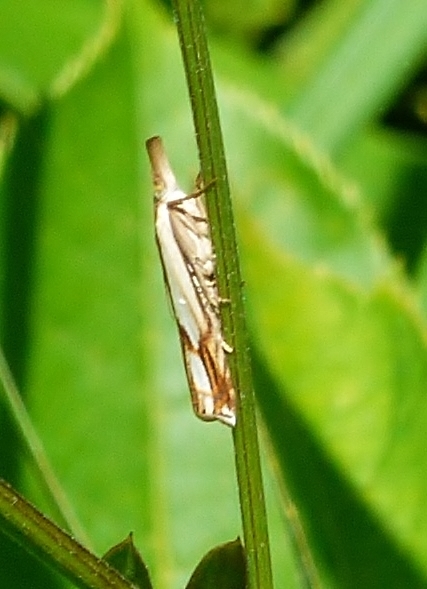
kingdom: Animalia
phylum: Arthropoda
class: Insecta
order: Lepidoptera
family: Crambidae
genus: Crambus
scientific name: Crambus agitatellus
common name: Double-banded grass-veneer
